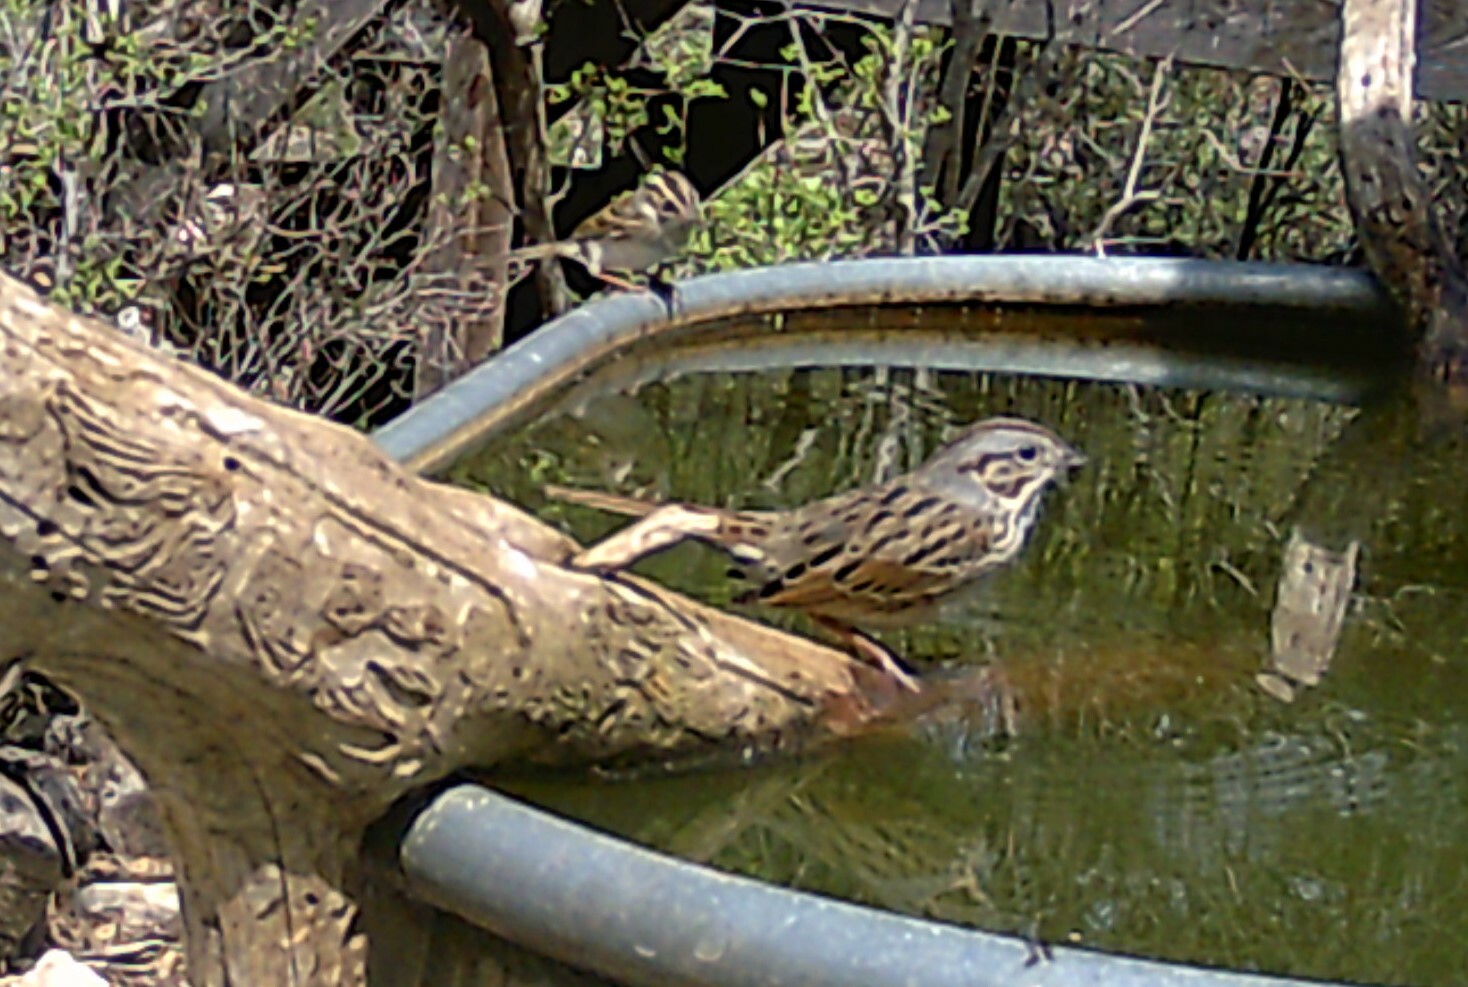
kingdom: Animalia
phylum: Chordata
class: Aves
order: Passeriformes
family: Passerellidae
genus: Melospiza
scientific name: Melospiza lincolnii
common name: Lincoln's sparrow
